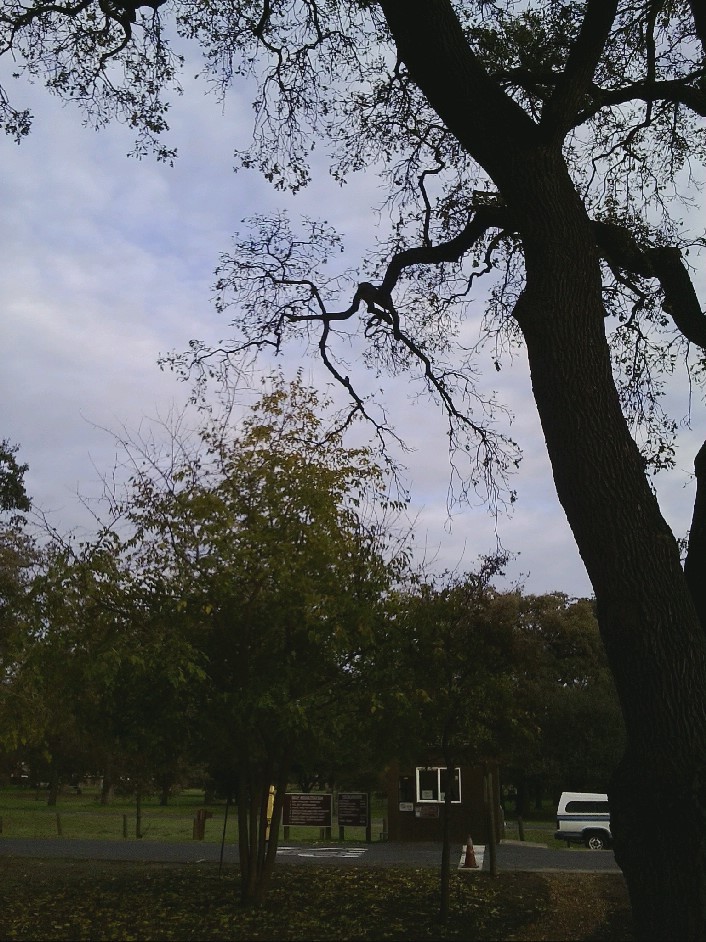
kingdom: Plantae
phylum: Tracheophyta
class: Magnoliopsida
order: Fagales
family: Fagaceae
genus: Quercus
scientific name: Quercus lobata
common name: Valley oak
